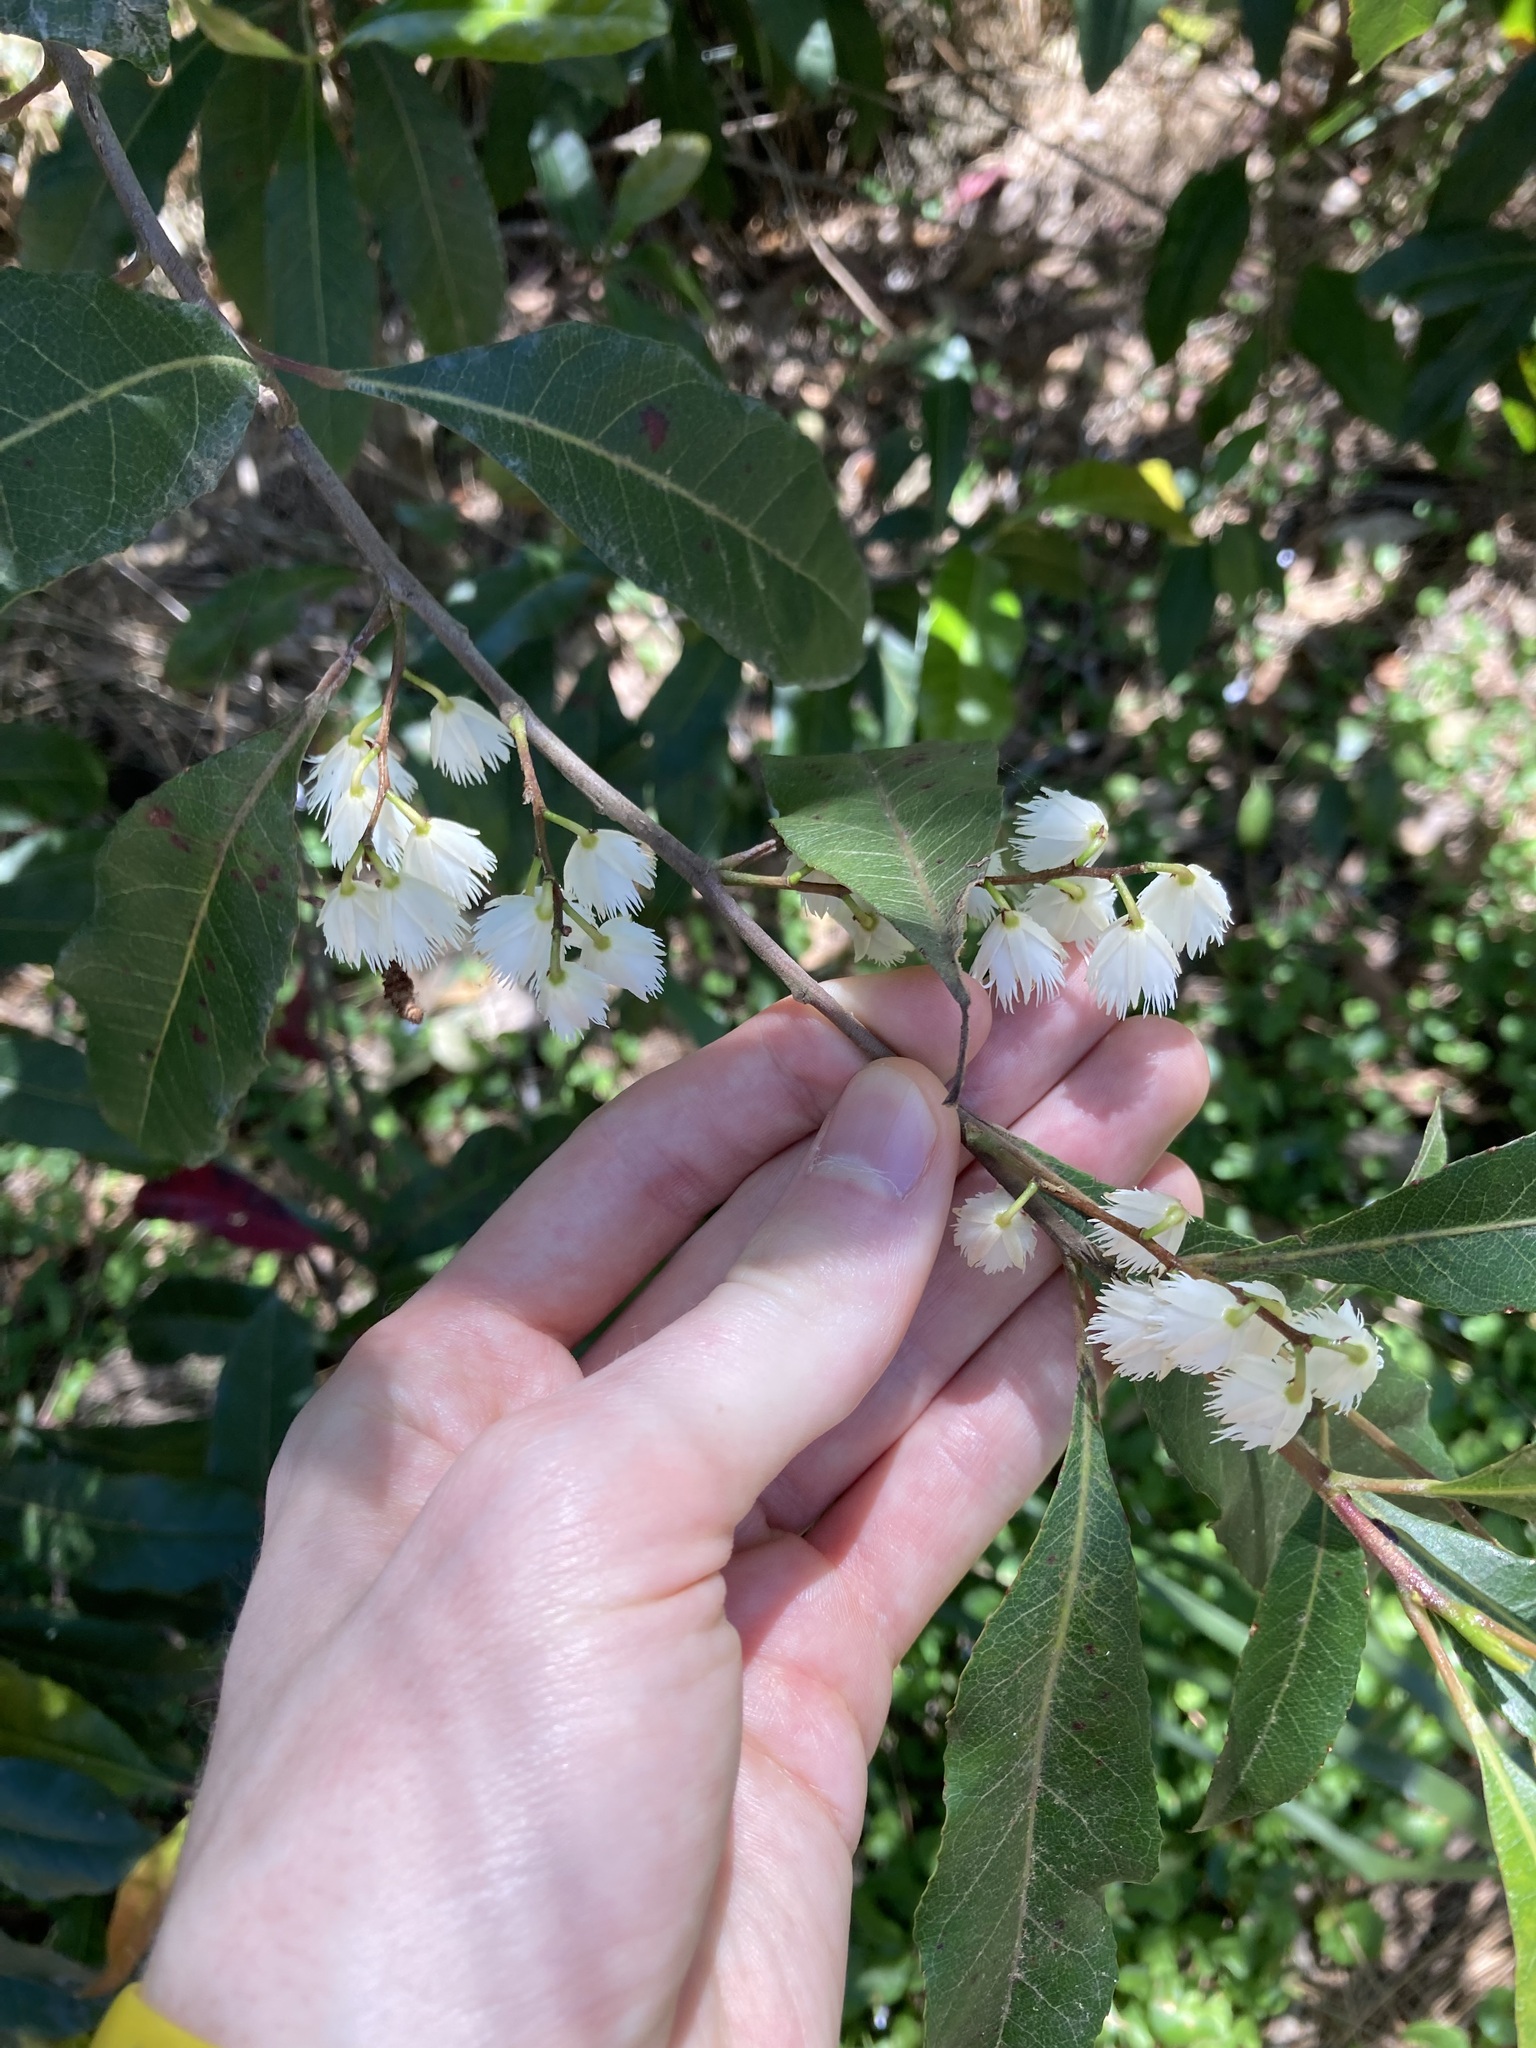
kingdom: Plantae
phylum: Tracheophyta
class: Magnoliopsida
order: Oxalidales
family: Elaeocarpaceae
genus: Elaeocarpus
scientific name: Elaeocarpus reticulatus
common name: Ash quandong
